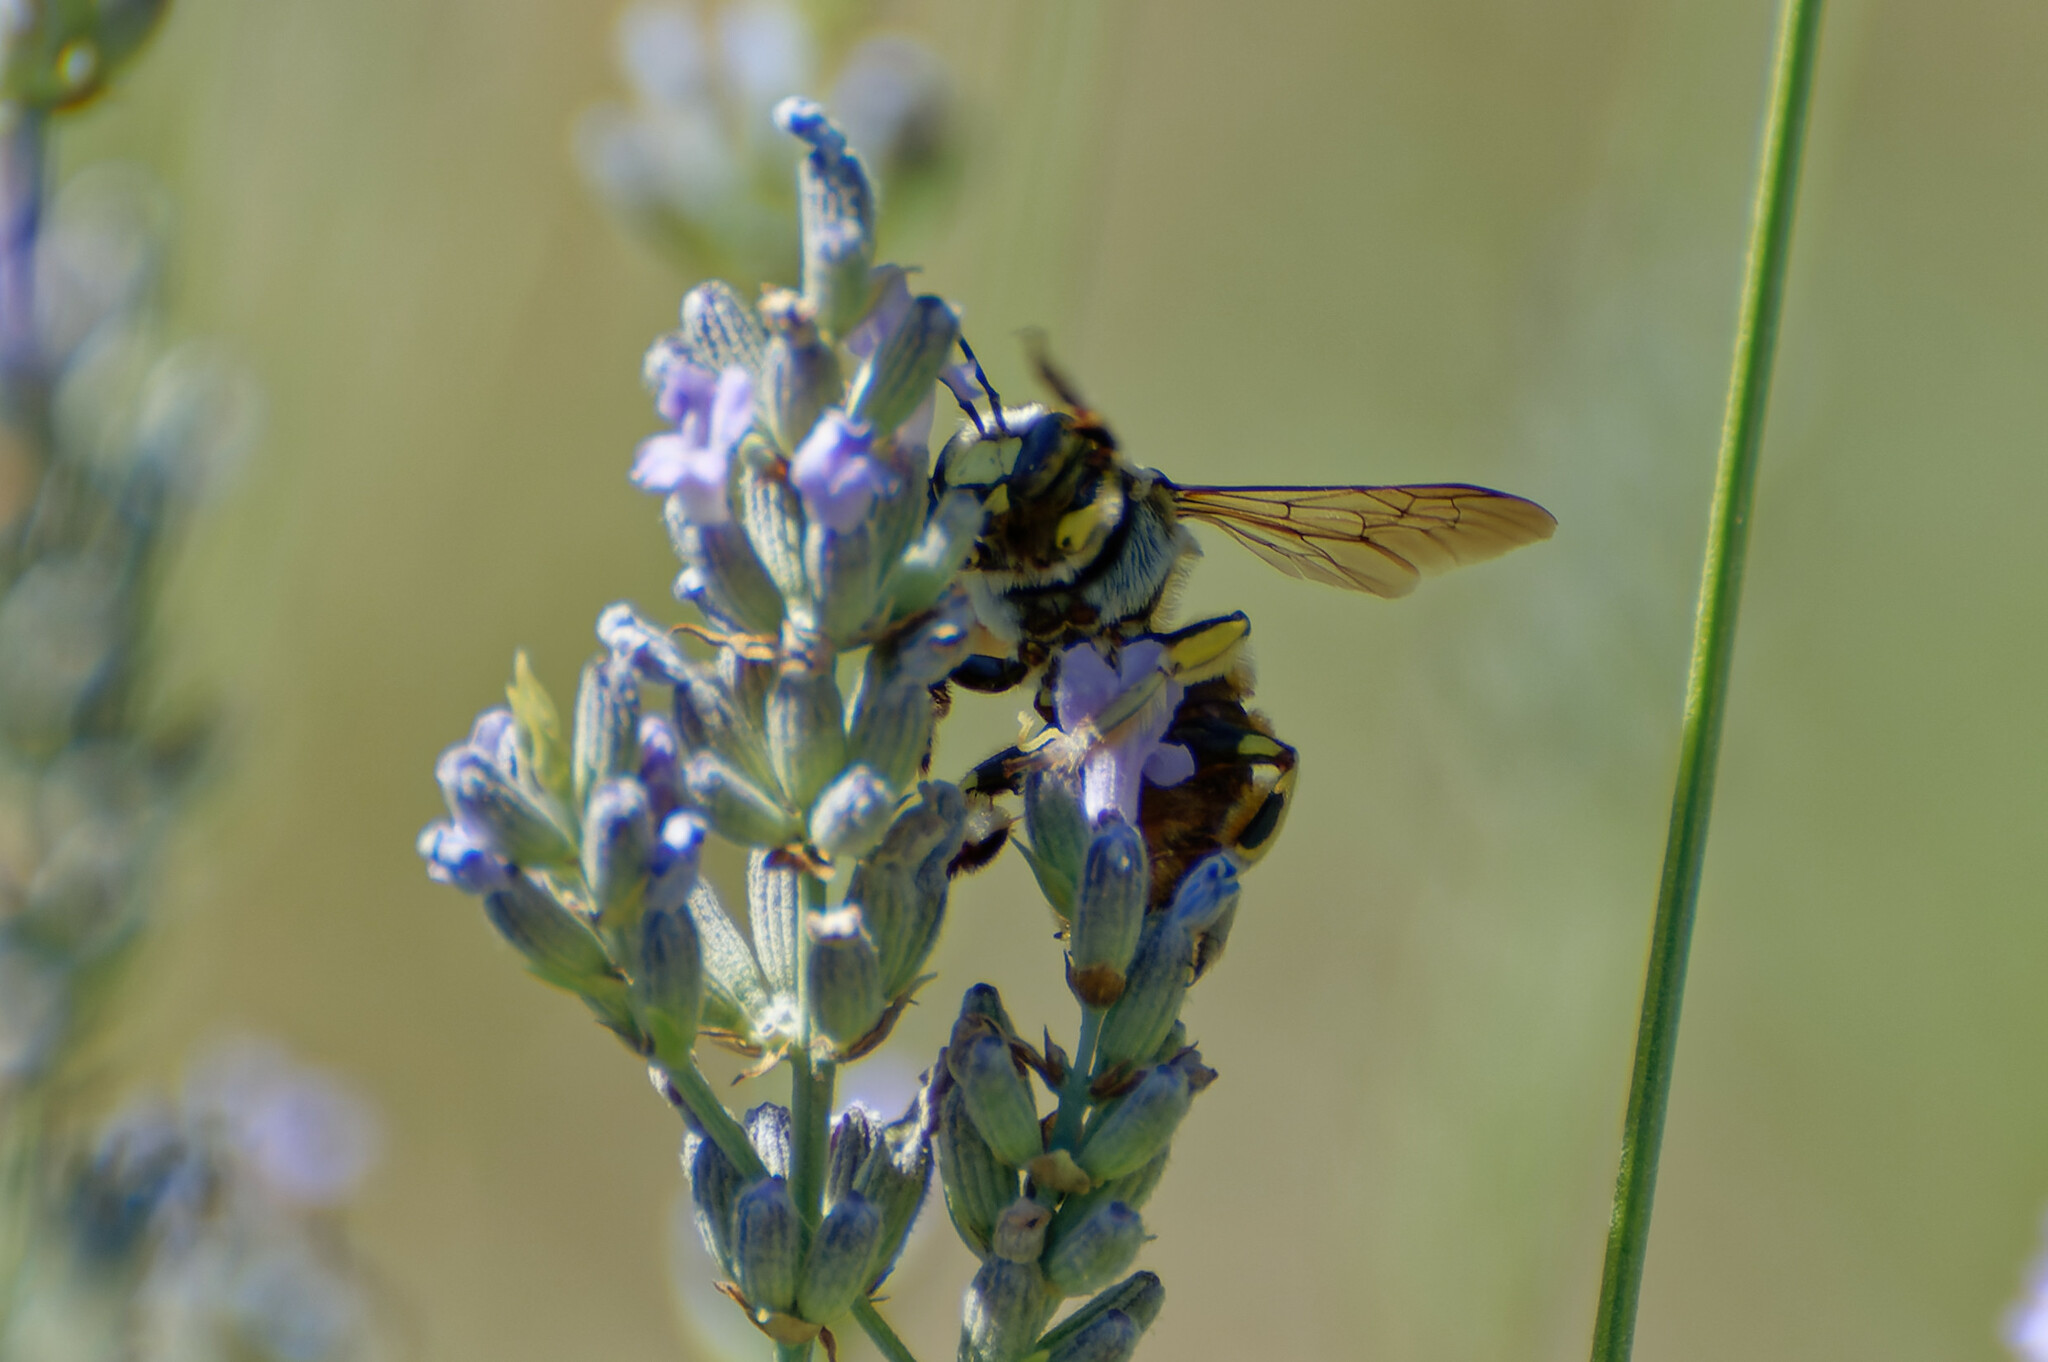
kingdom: Animalia
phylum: Arthropoda
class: Insecta
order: Hymenoptera
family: Megachilidae
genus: Anthidium
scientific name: Anthidium florentinum
